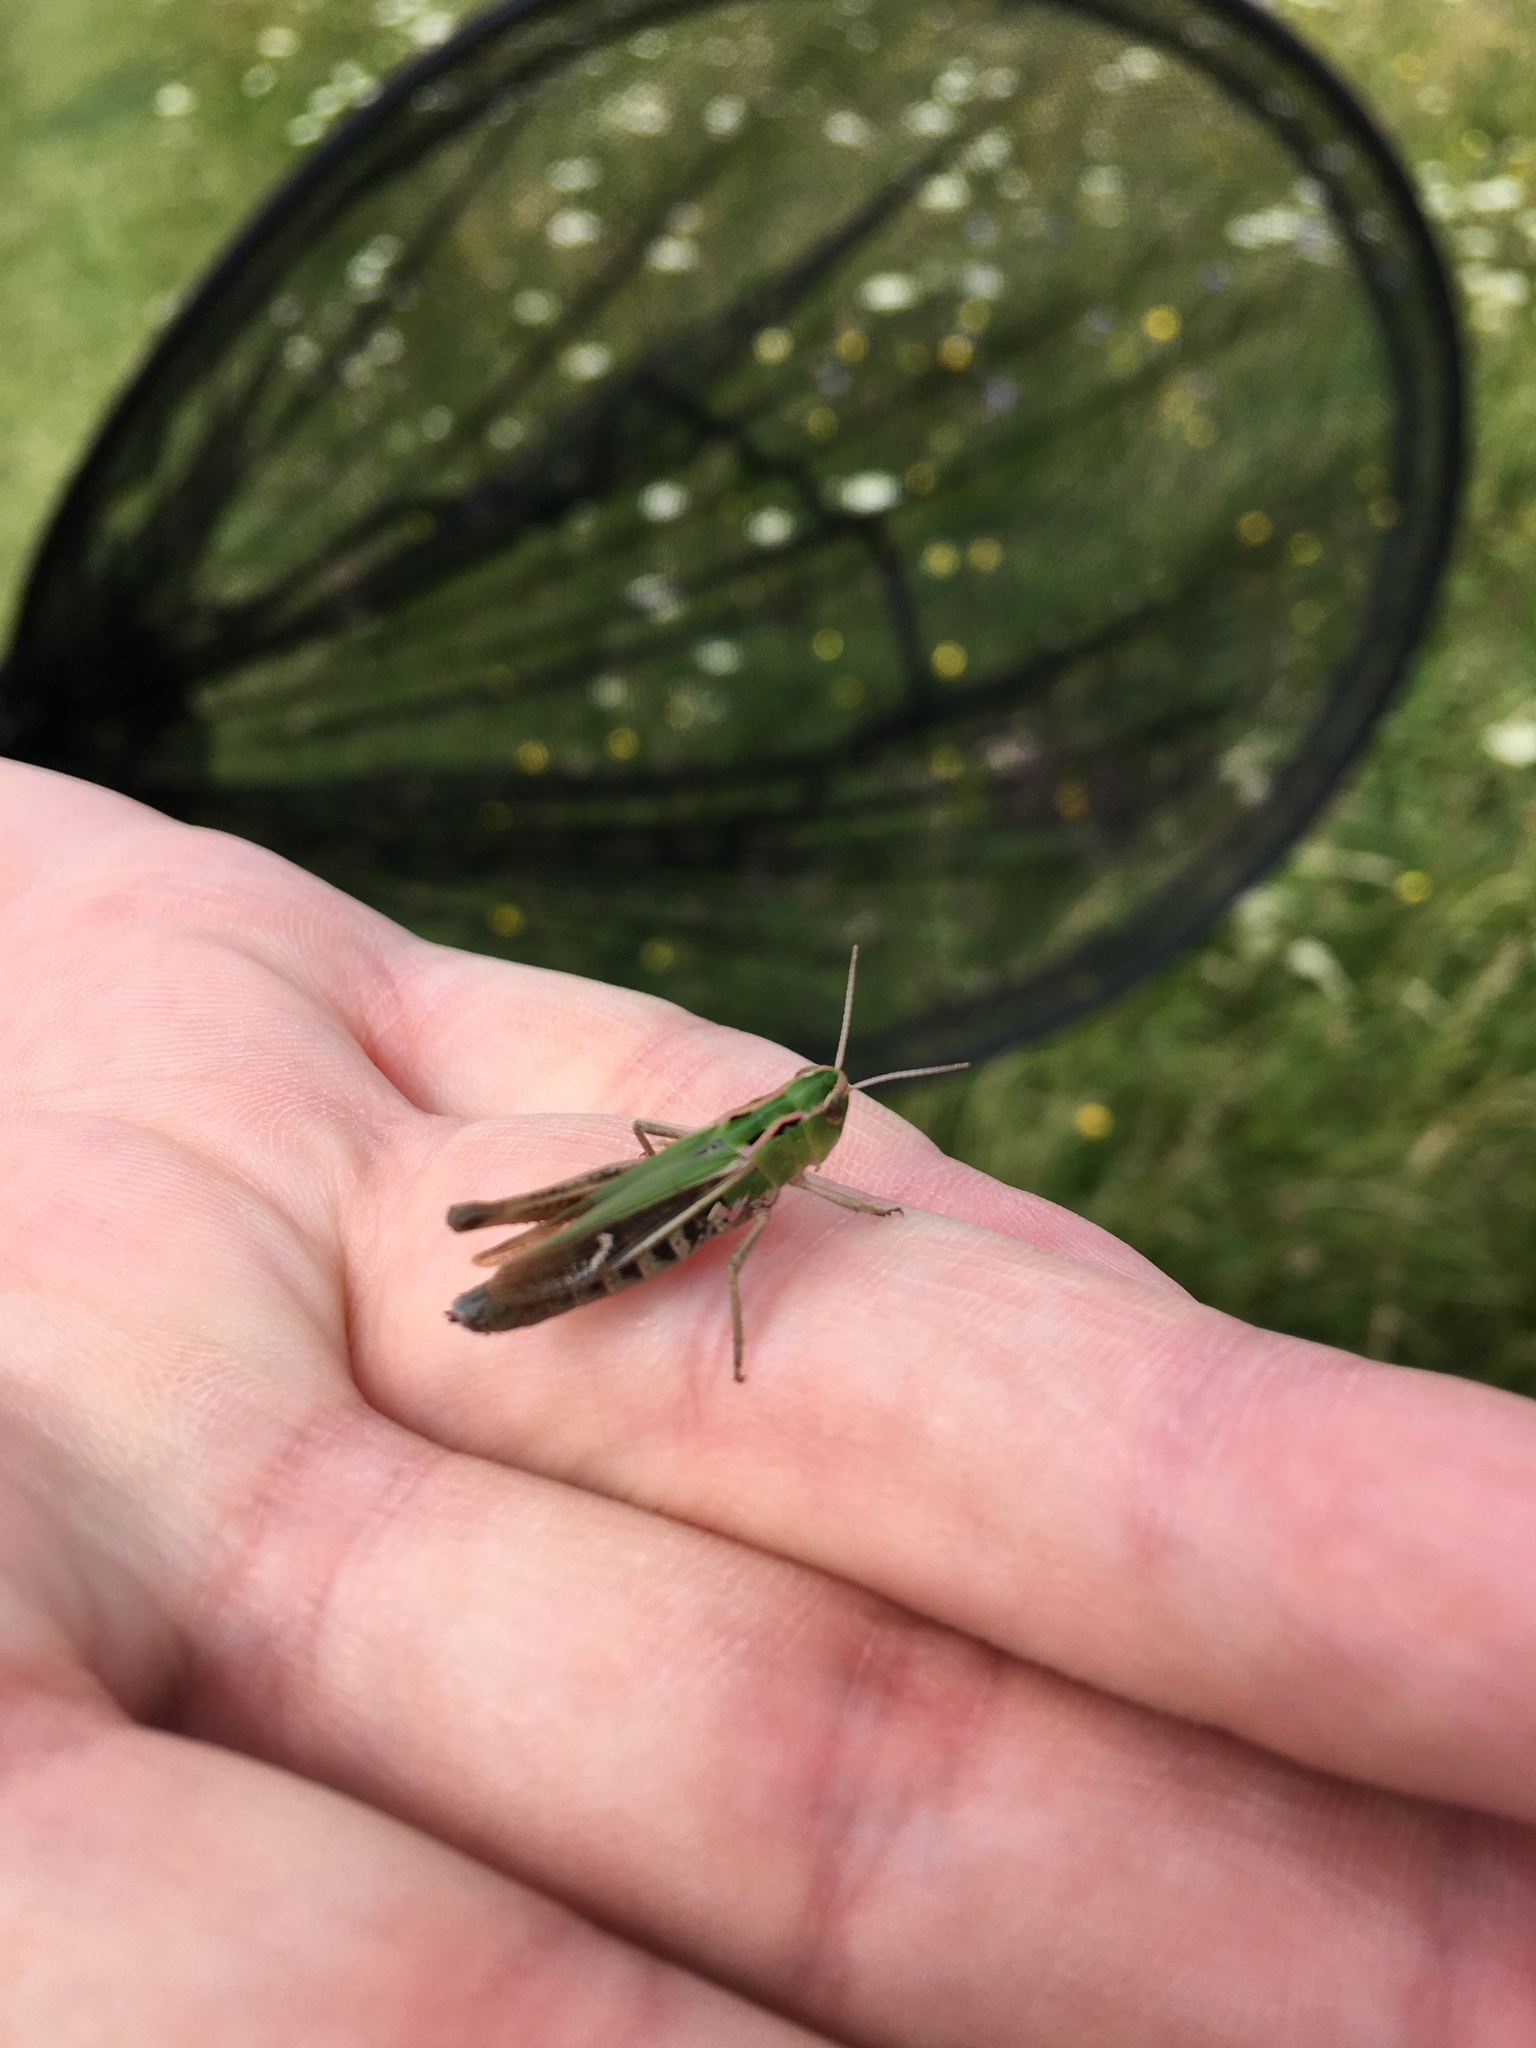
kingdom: Animalia
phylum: Arthropoda
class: Insecta
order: Orthoptera
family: Acrididae
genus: Stenobothrus
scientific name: Stenobothrus lineatus
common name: Stripe-winged grasshopper
